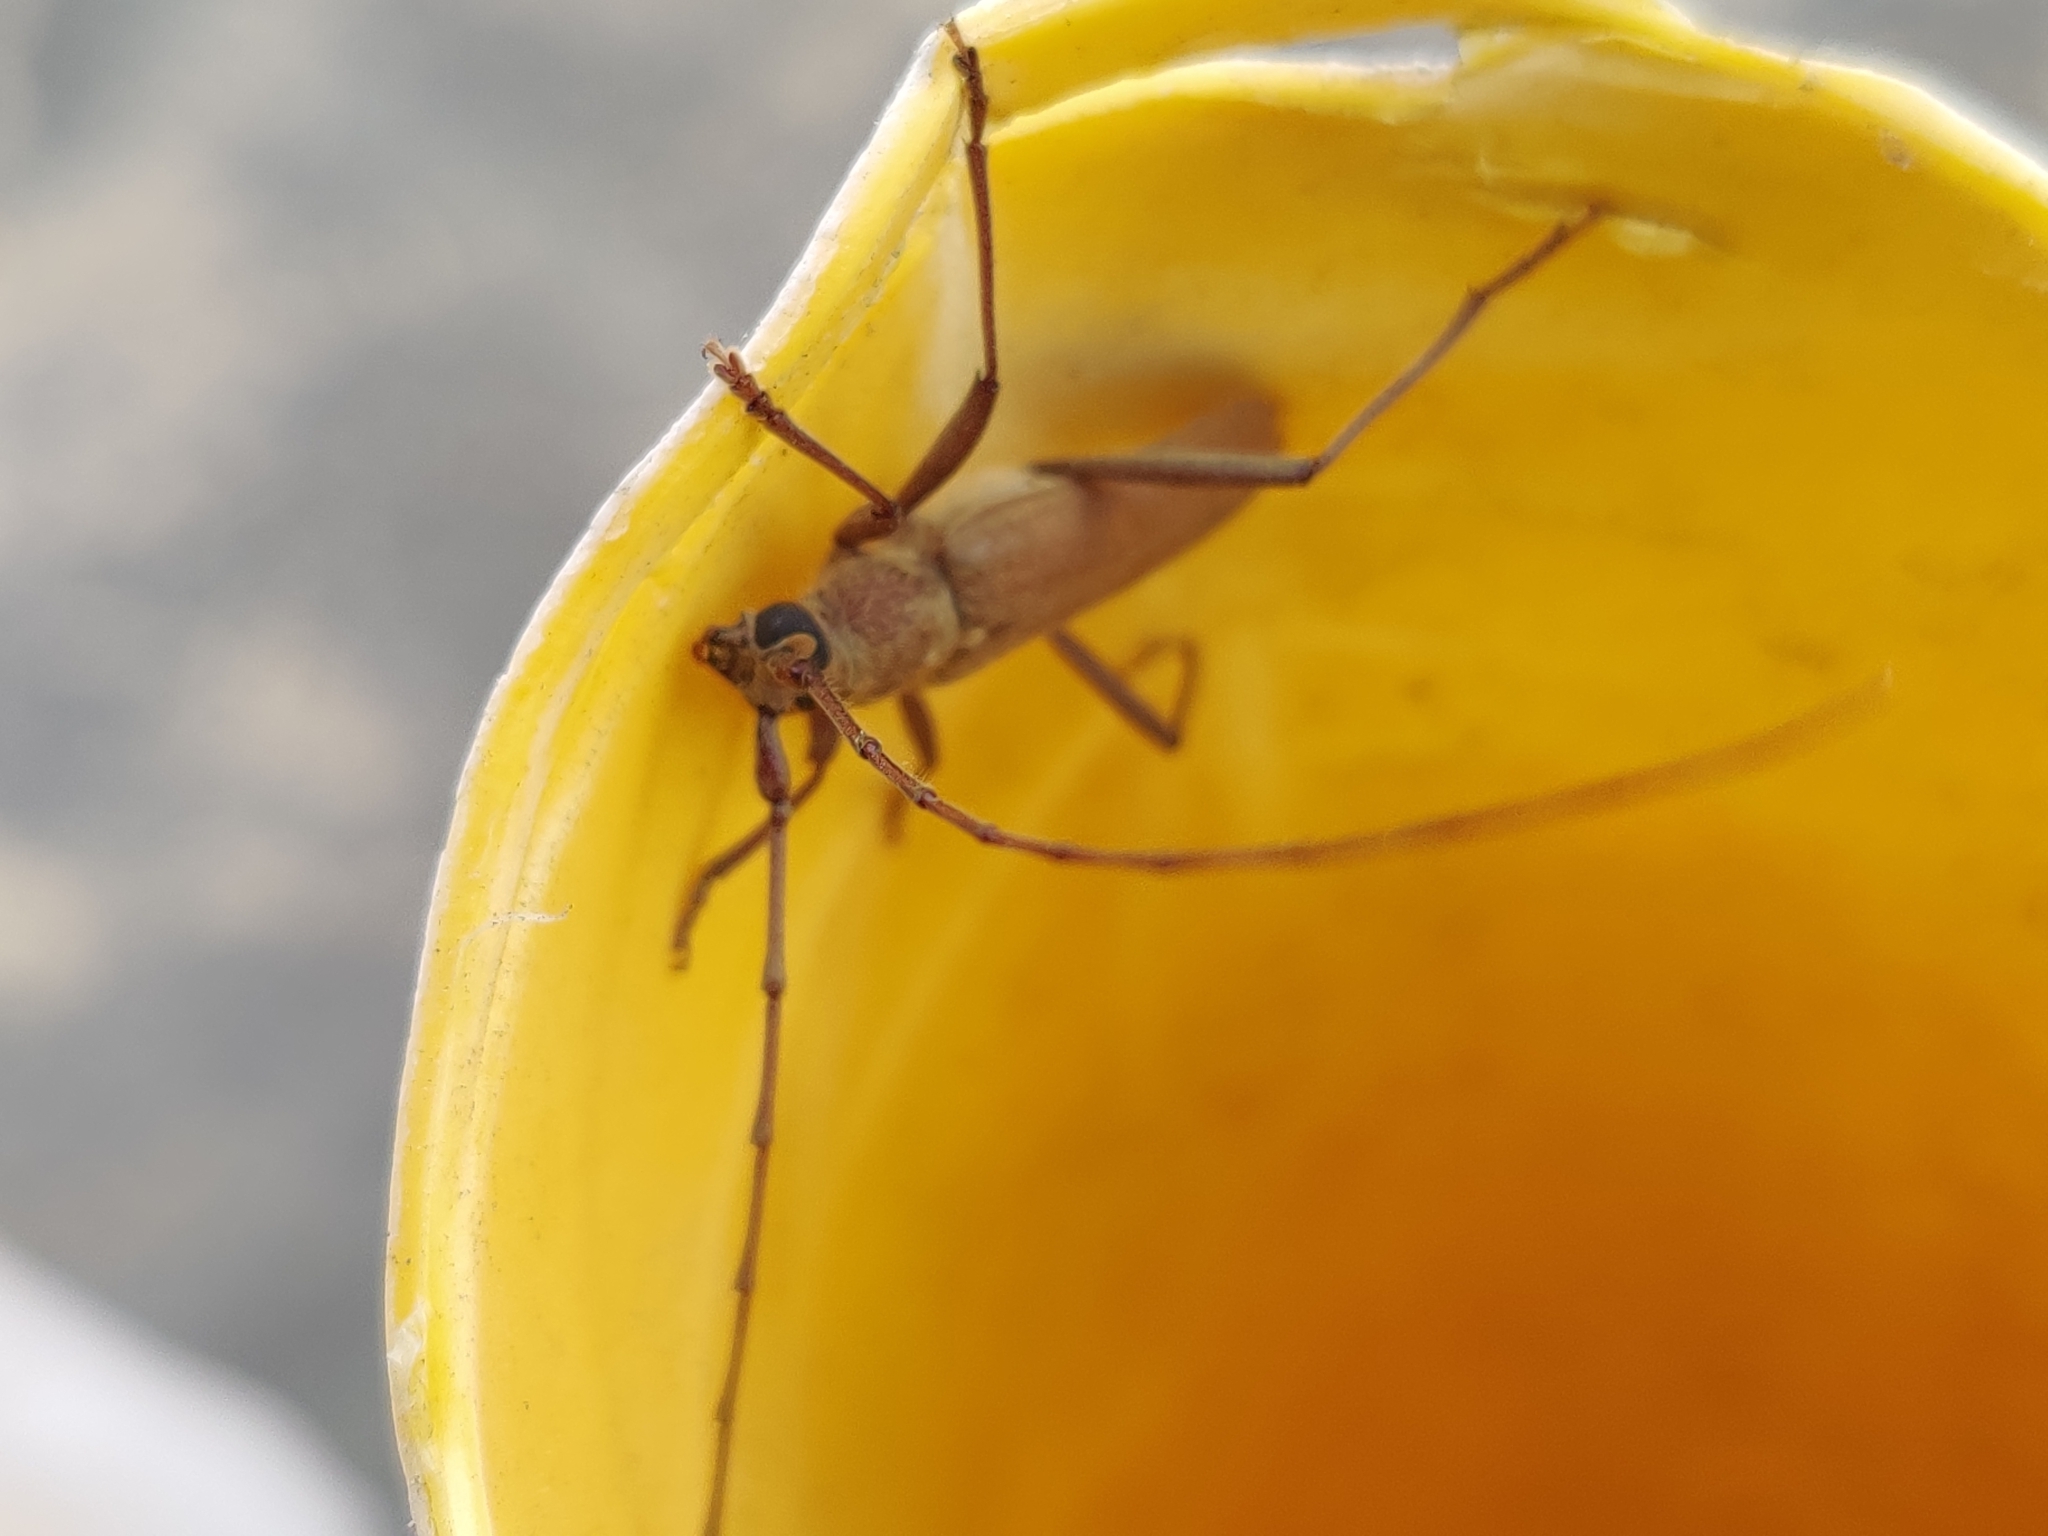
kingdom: Animalia
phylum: Arthropoda
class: Insecta
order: Coleoptera
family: Cerambycidae
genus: Knulliana
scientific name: Knulliana cincta
